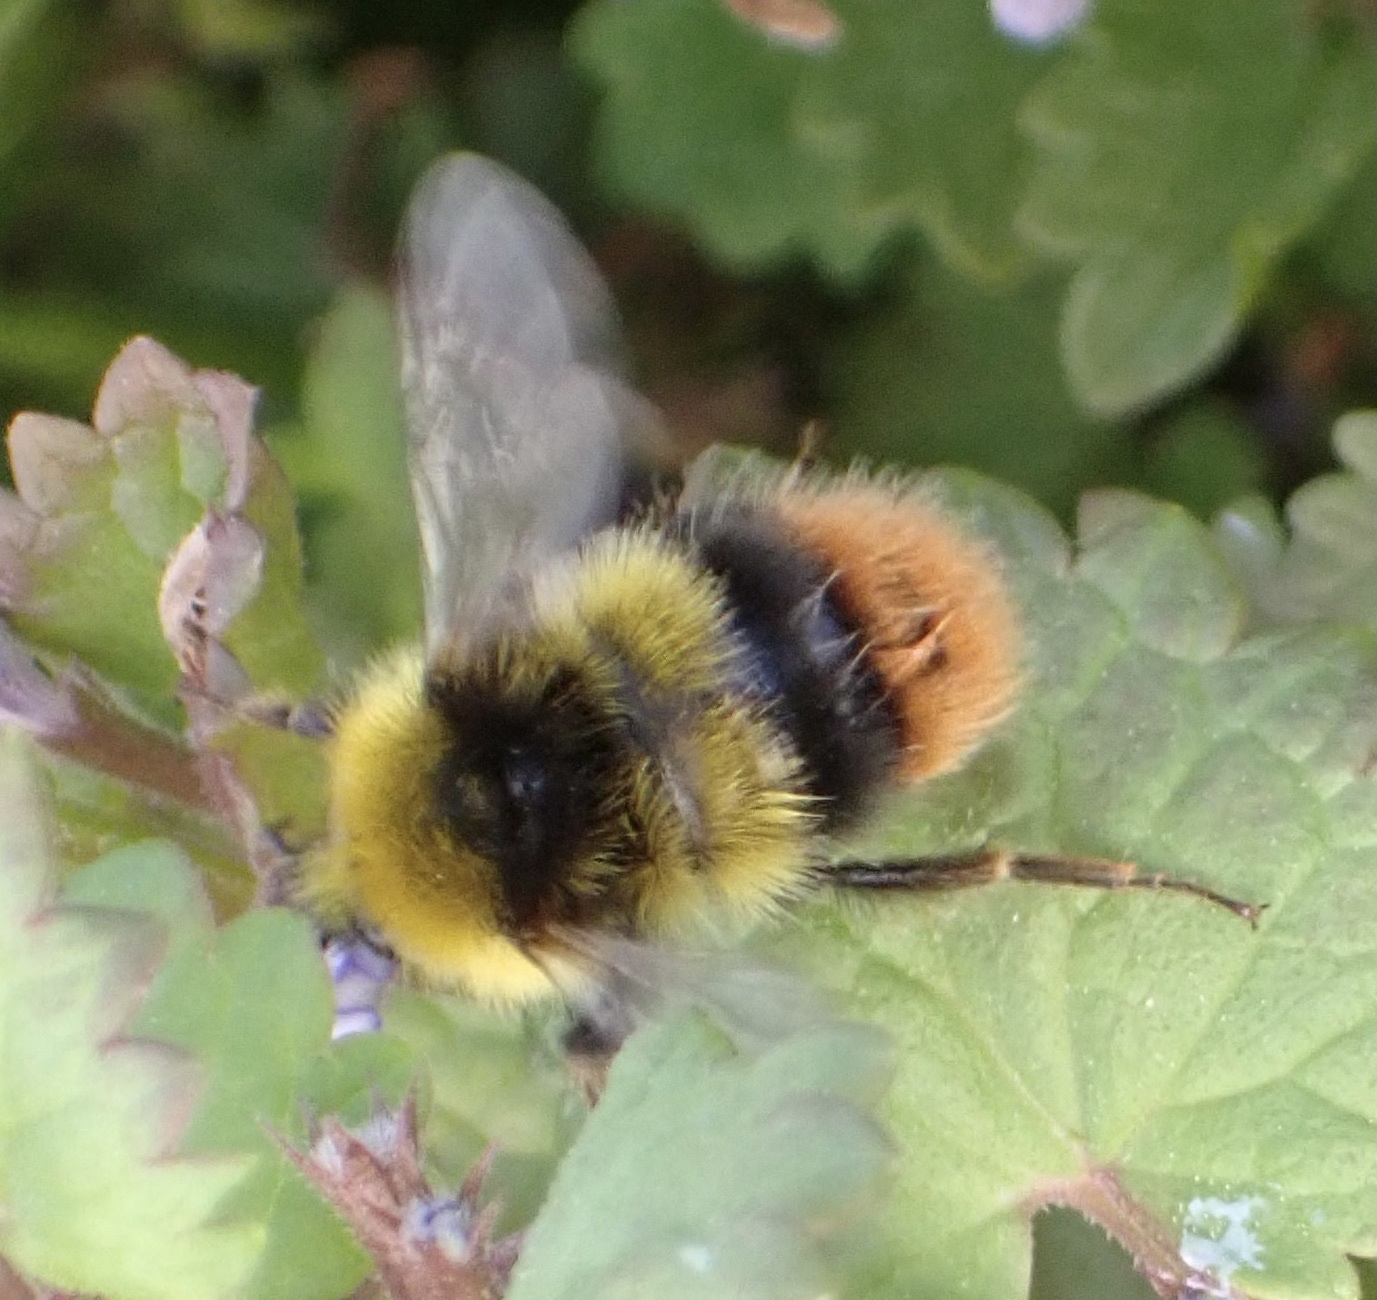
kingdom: Animalia
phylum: Arthropoda
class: Insecta
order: Hymenoptera
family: Apidae
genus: Bombus
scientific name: Bombus pratorum
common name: Early humble-bee
